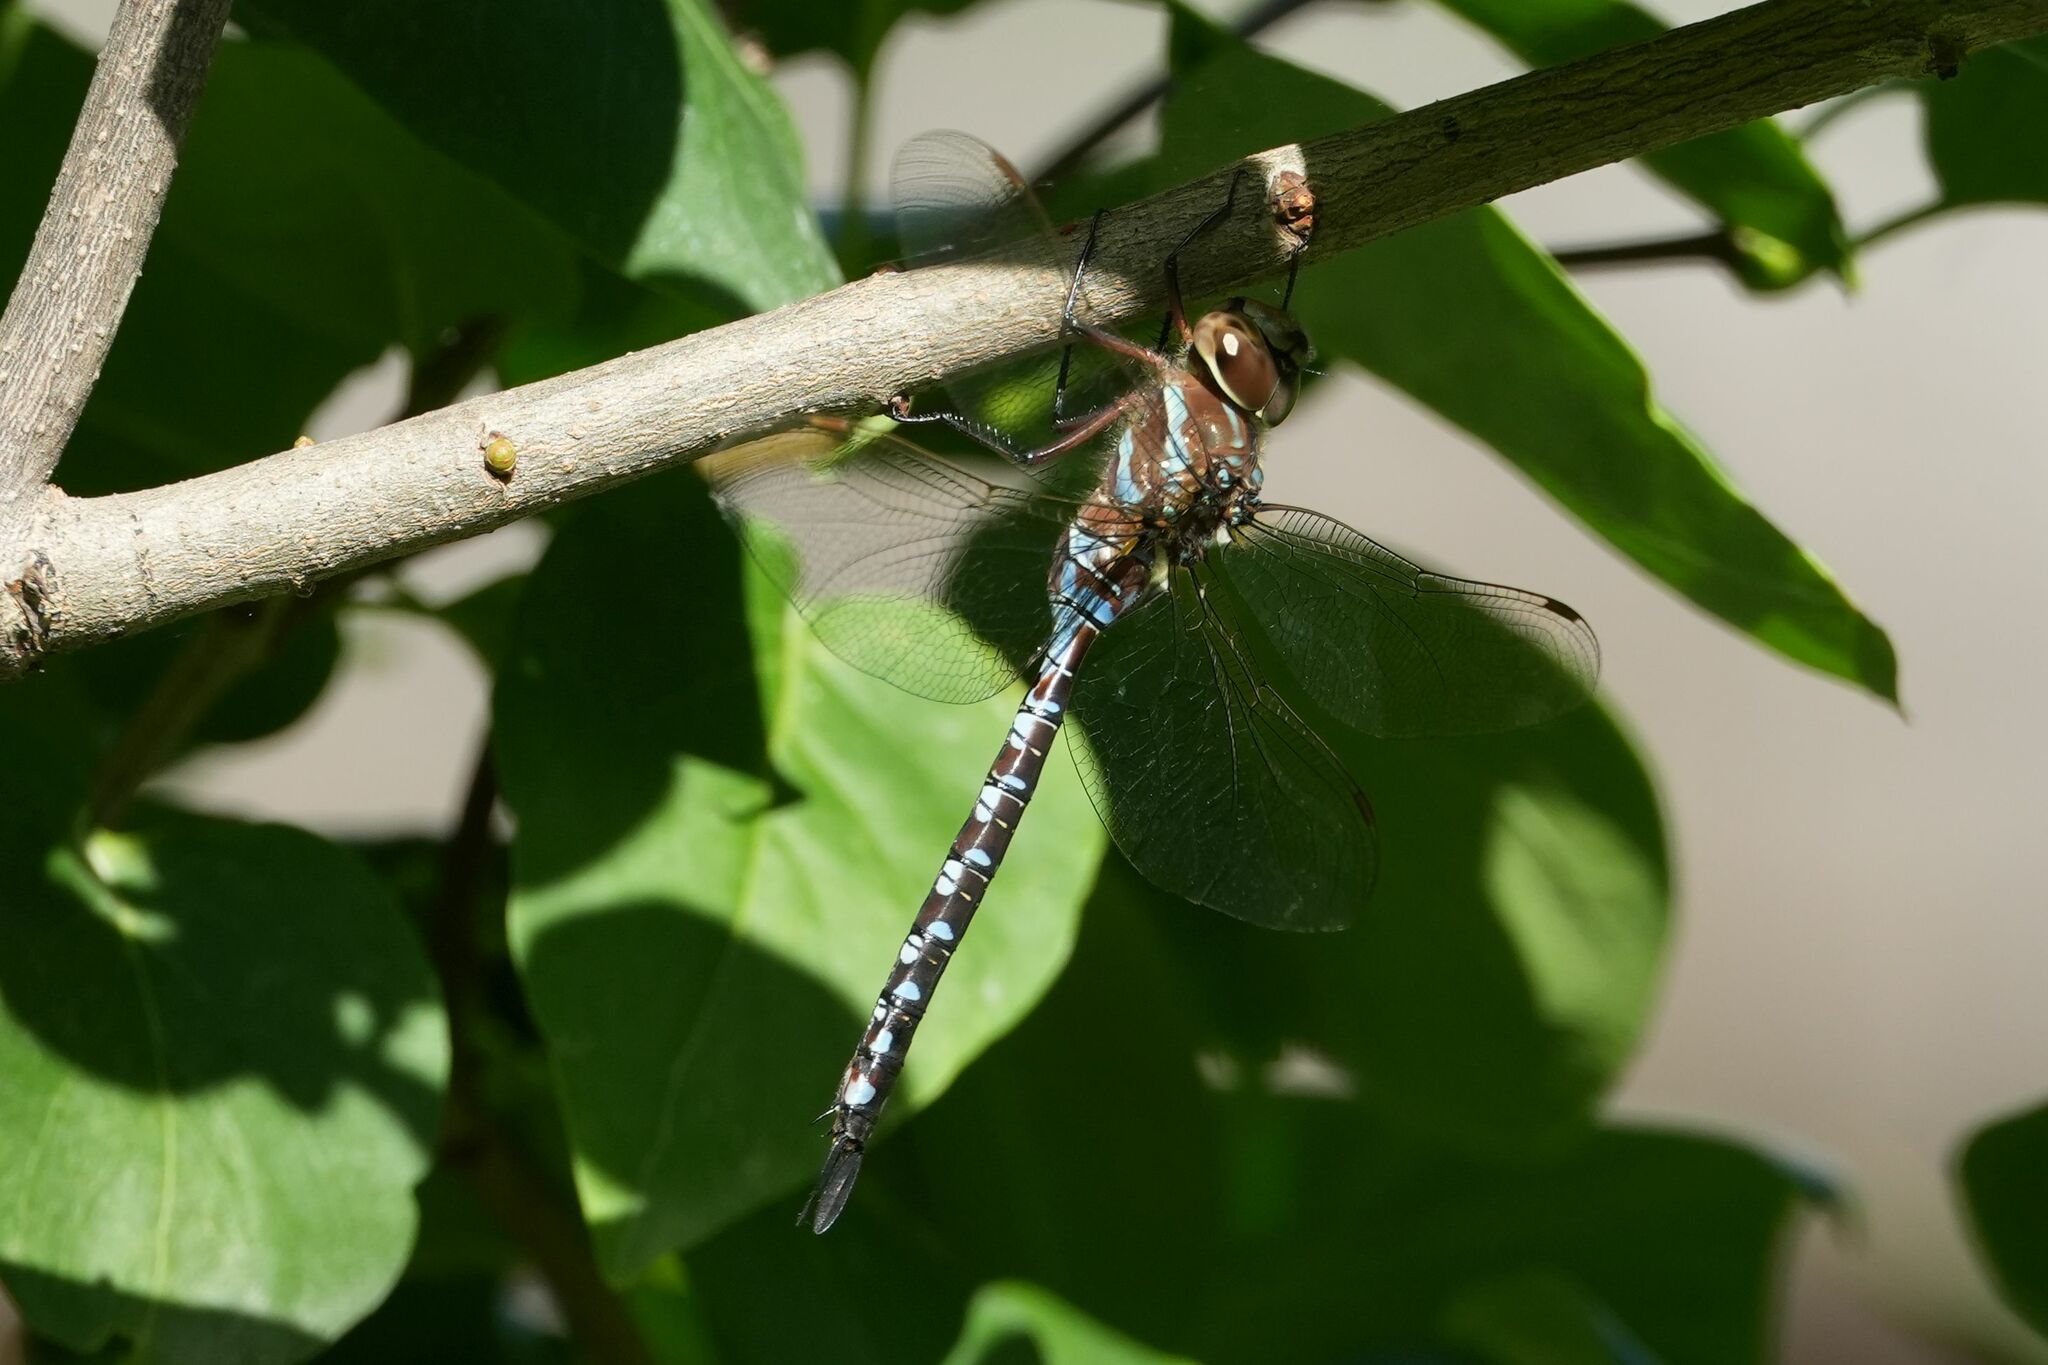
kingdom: Animalia
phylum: Arthropoda
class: Insecta
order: Odonata
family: Aeshnidae
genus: Aeshna
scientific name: Aeshna constricta
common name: Lance-tipped darner
